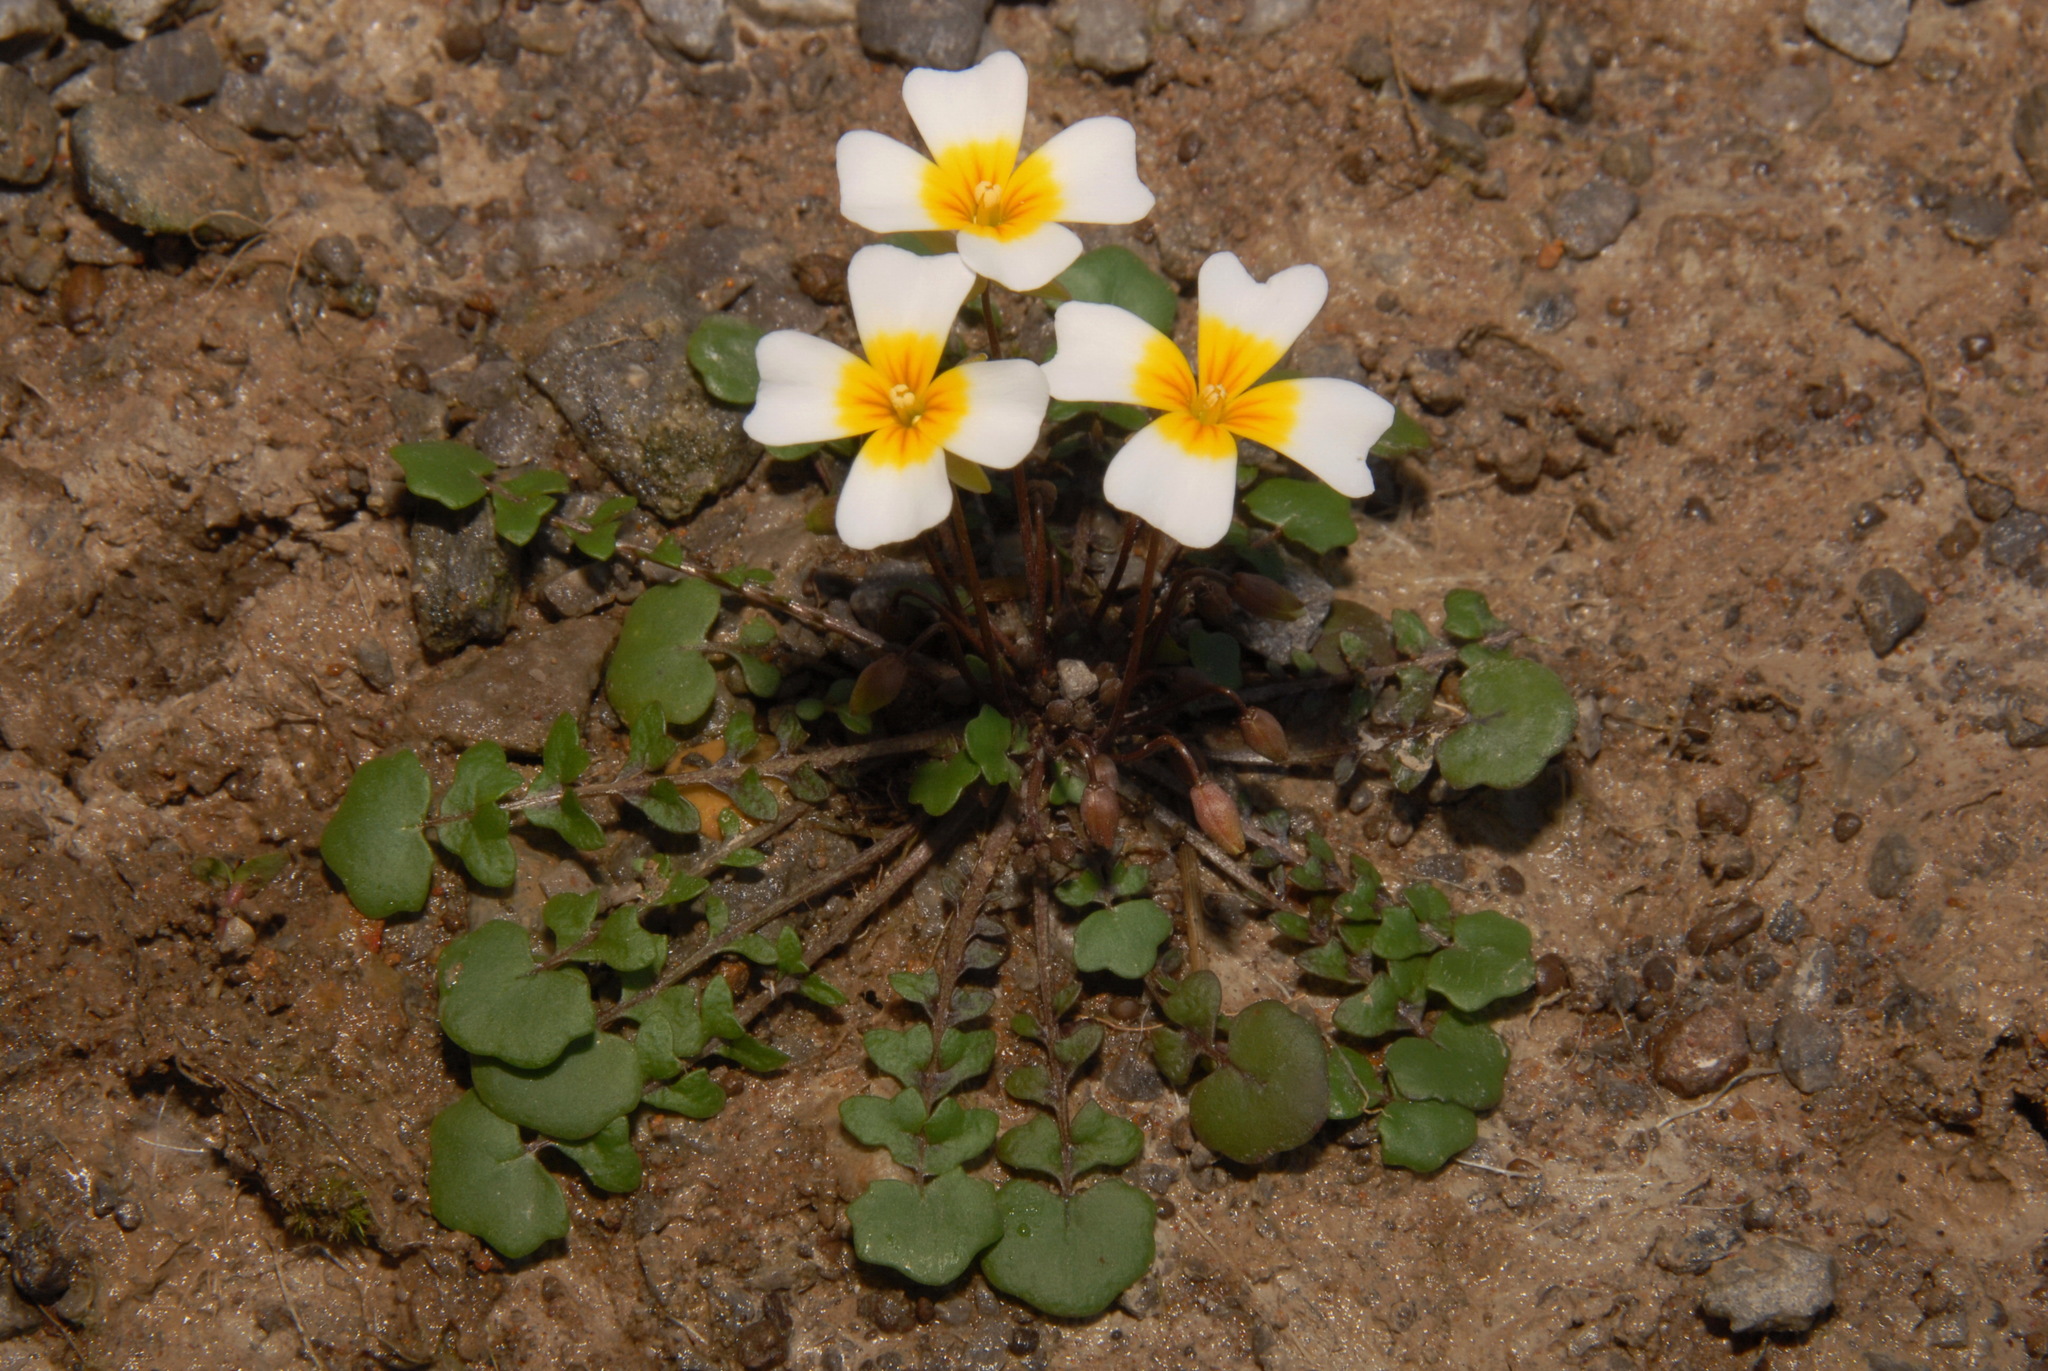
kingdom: Plantae
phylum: Tracheophyta
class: Magnoliopsida
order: Brassicales
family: Brassicaceae
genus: Leavenworthia
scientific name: Leavenworthia crassa
